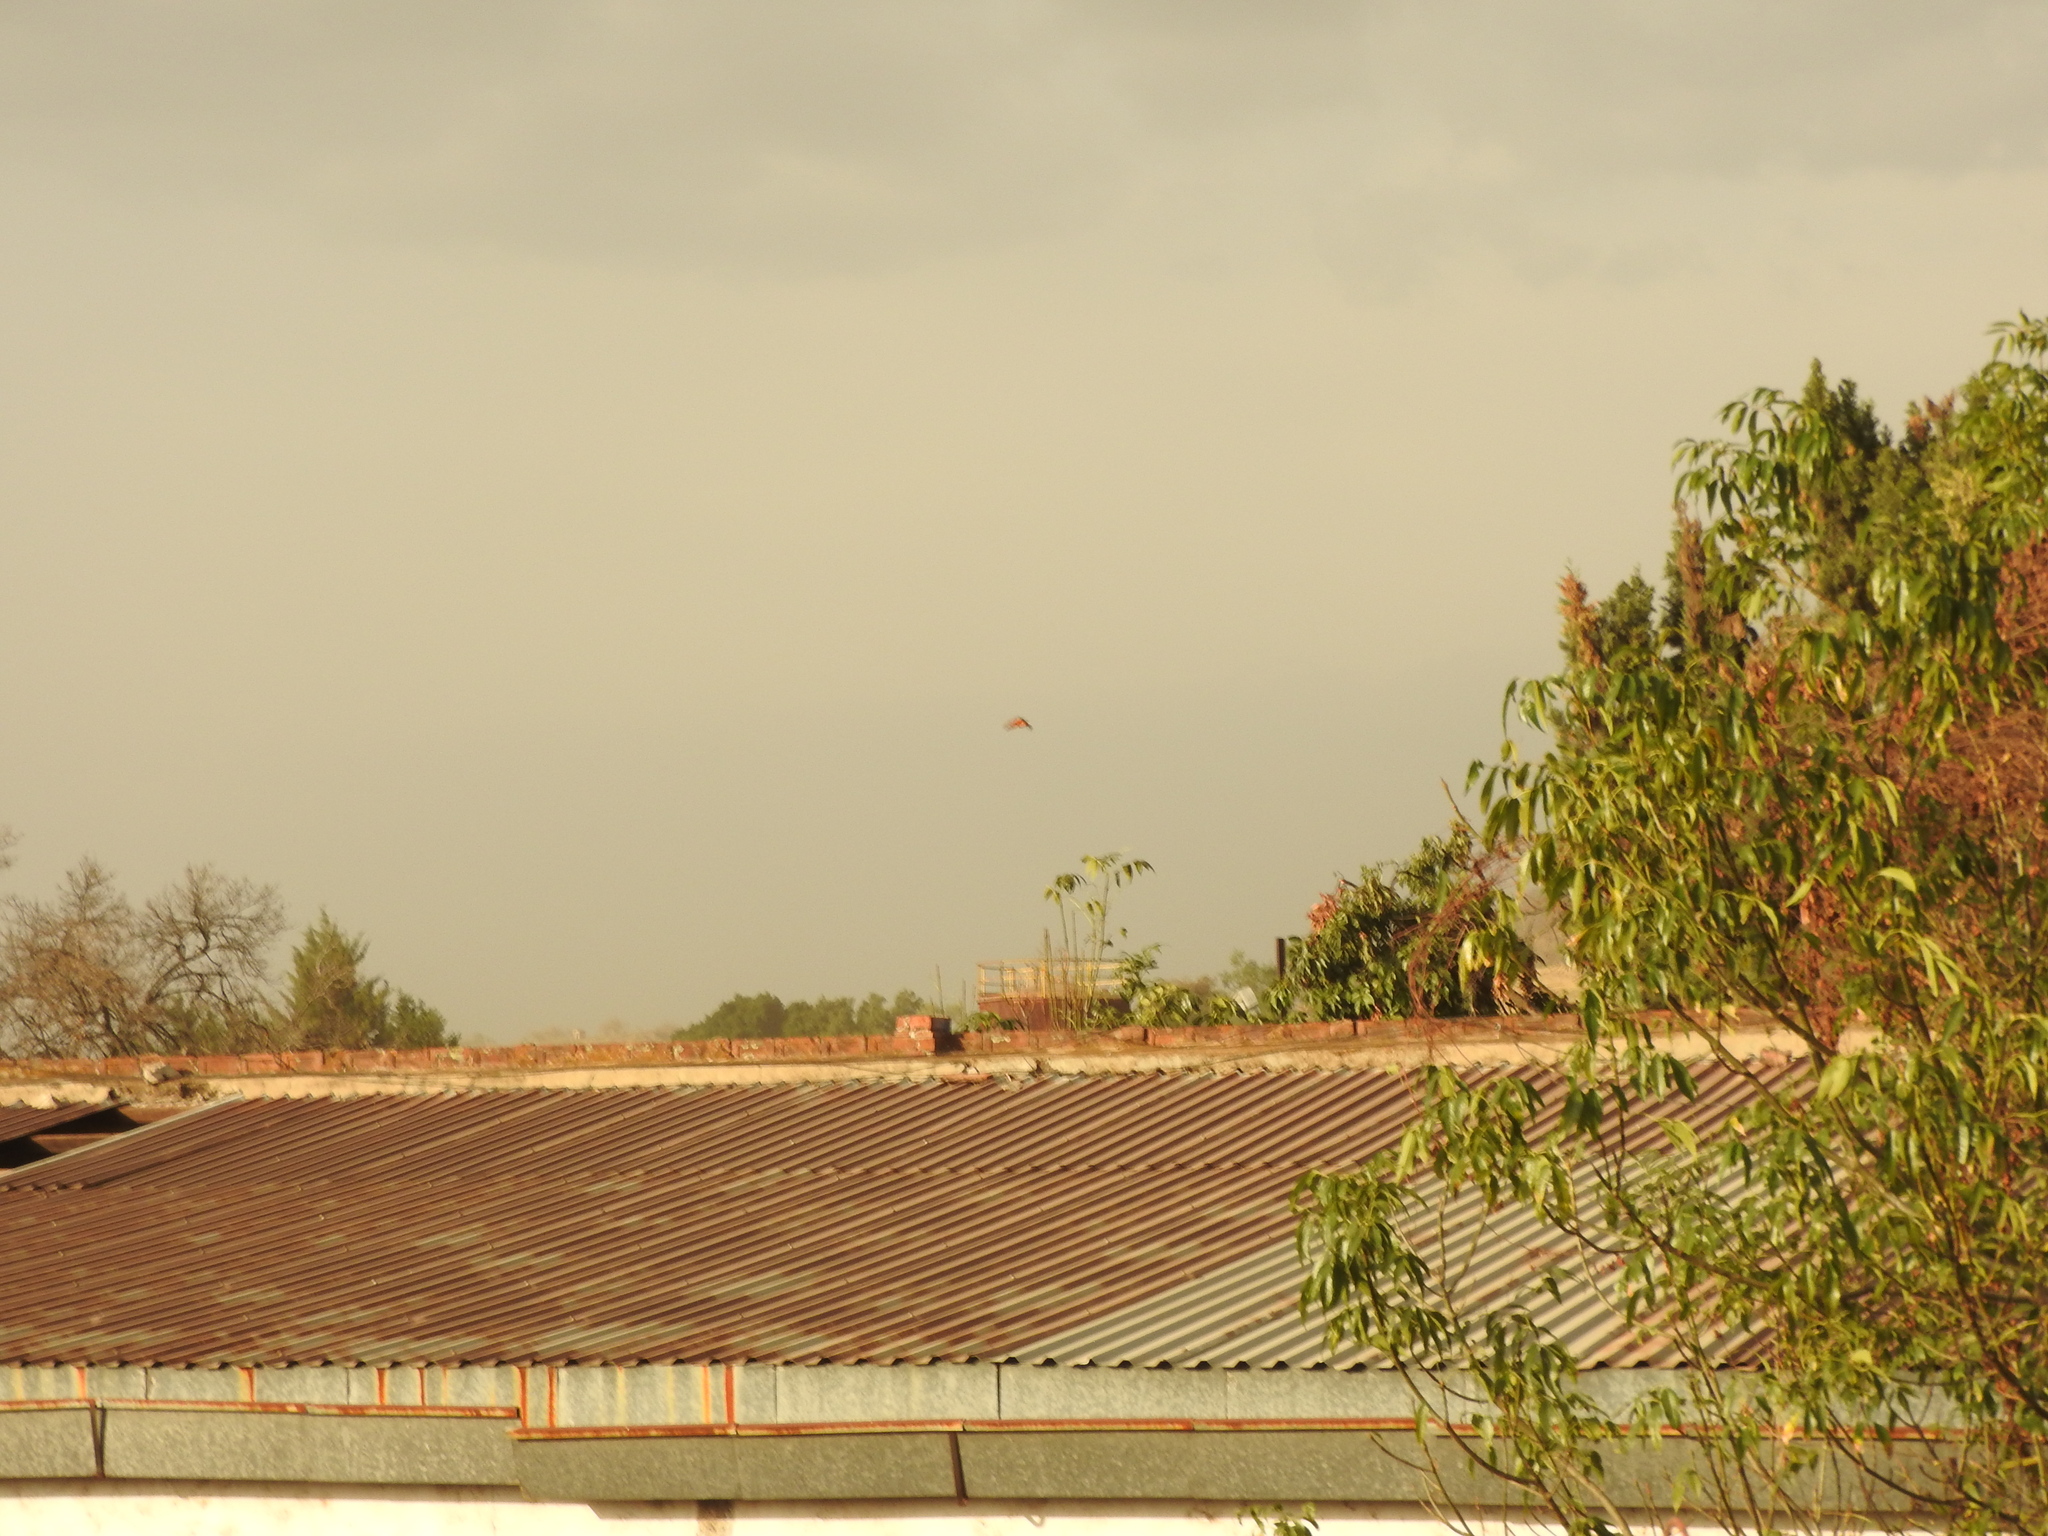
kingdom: Animalia
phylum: Arthropoda
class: Insecta
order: Lepidoptera
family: Nymphalidae
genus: Danaus
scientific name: Danaus plexippus
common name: Monarch
